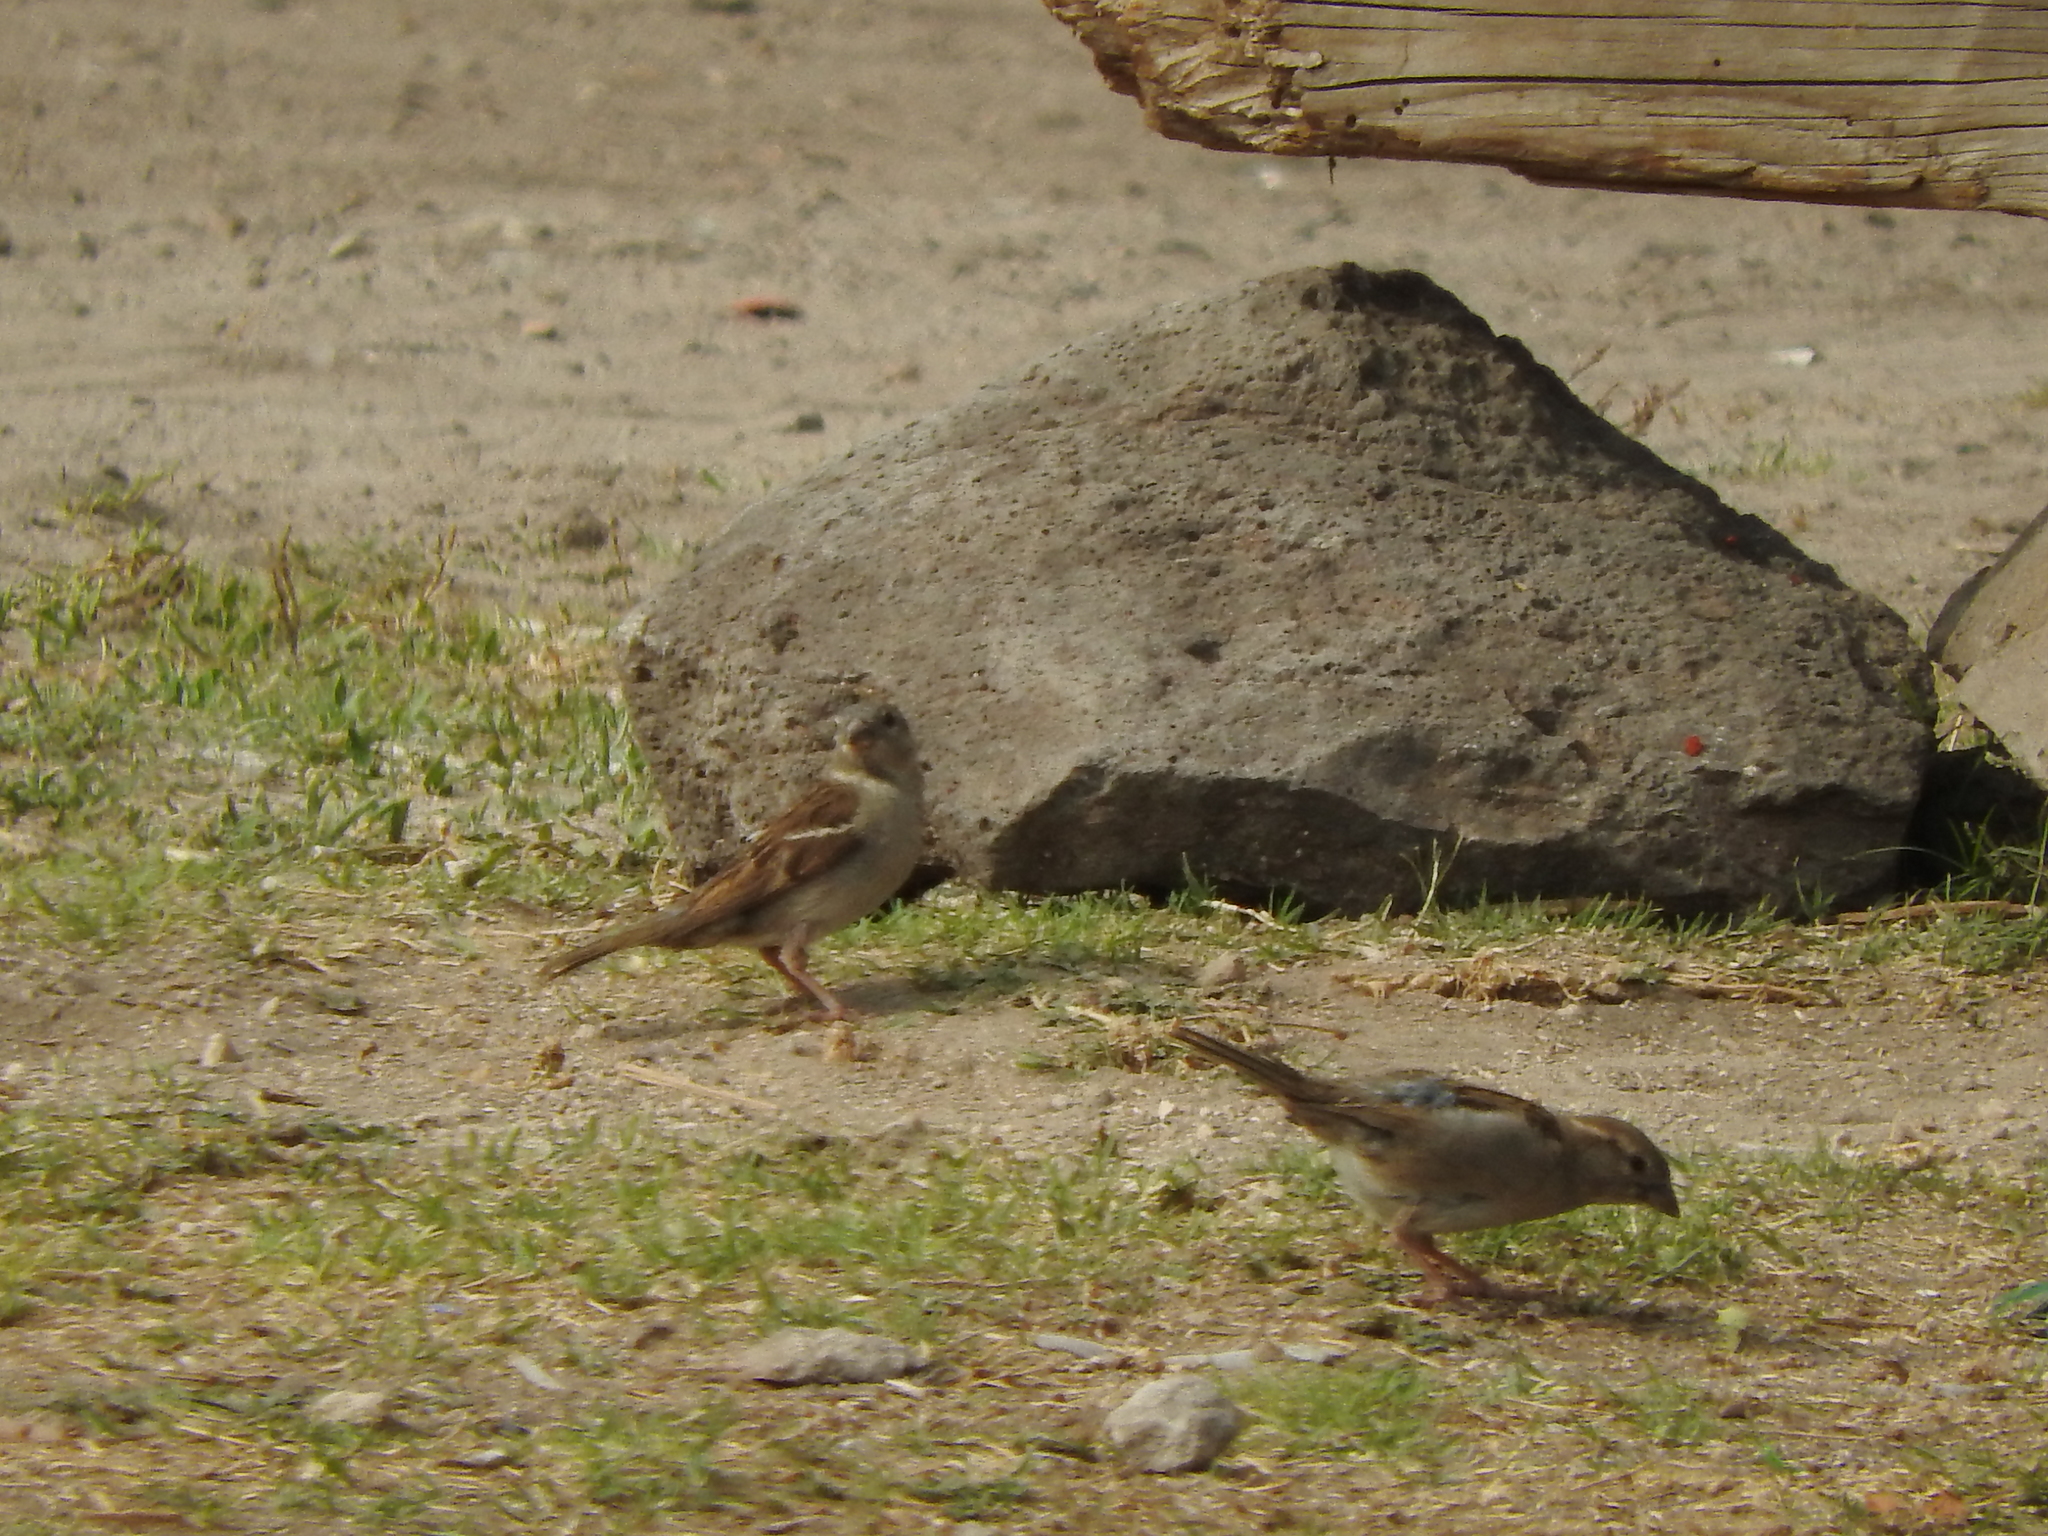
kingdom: Animalia
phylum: Chordata
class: Aves
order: Passeriformes
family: Passeridae
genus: Passer
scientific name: Passer domesticus
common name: House sparrow
